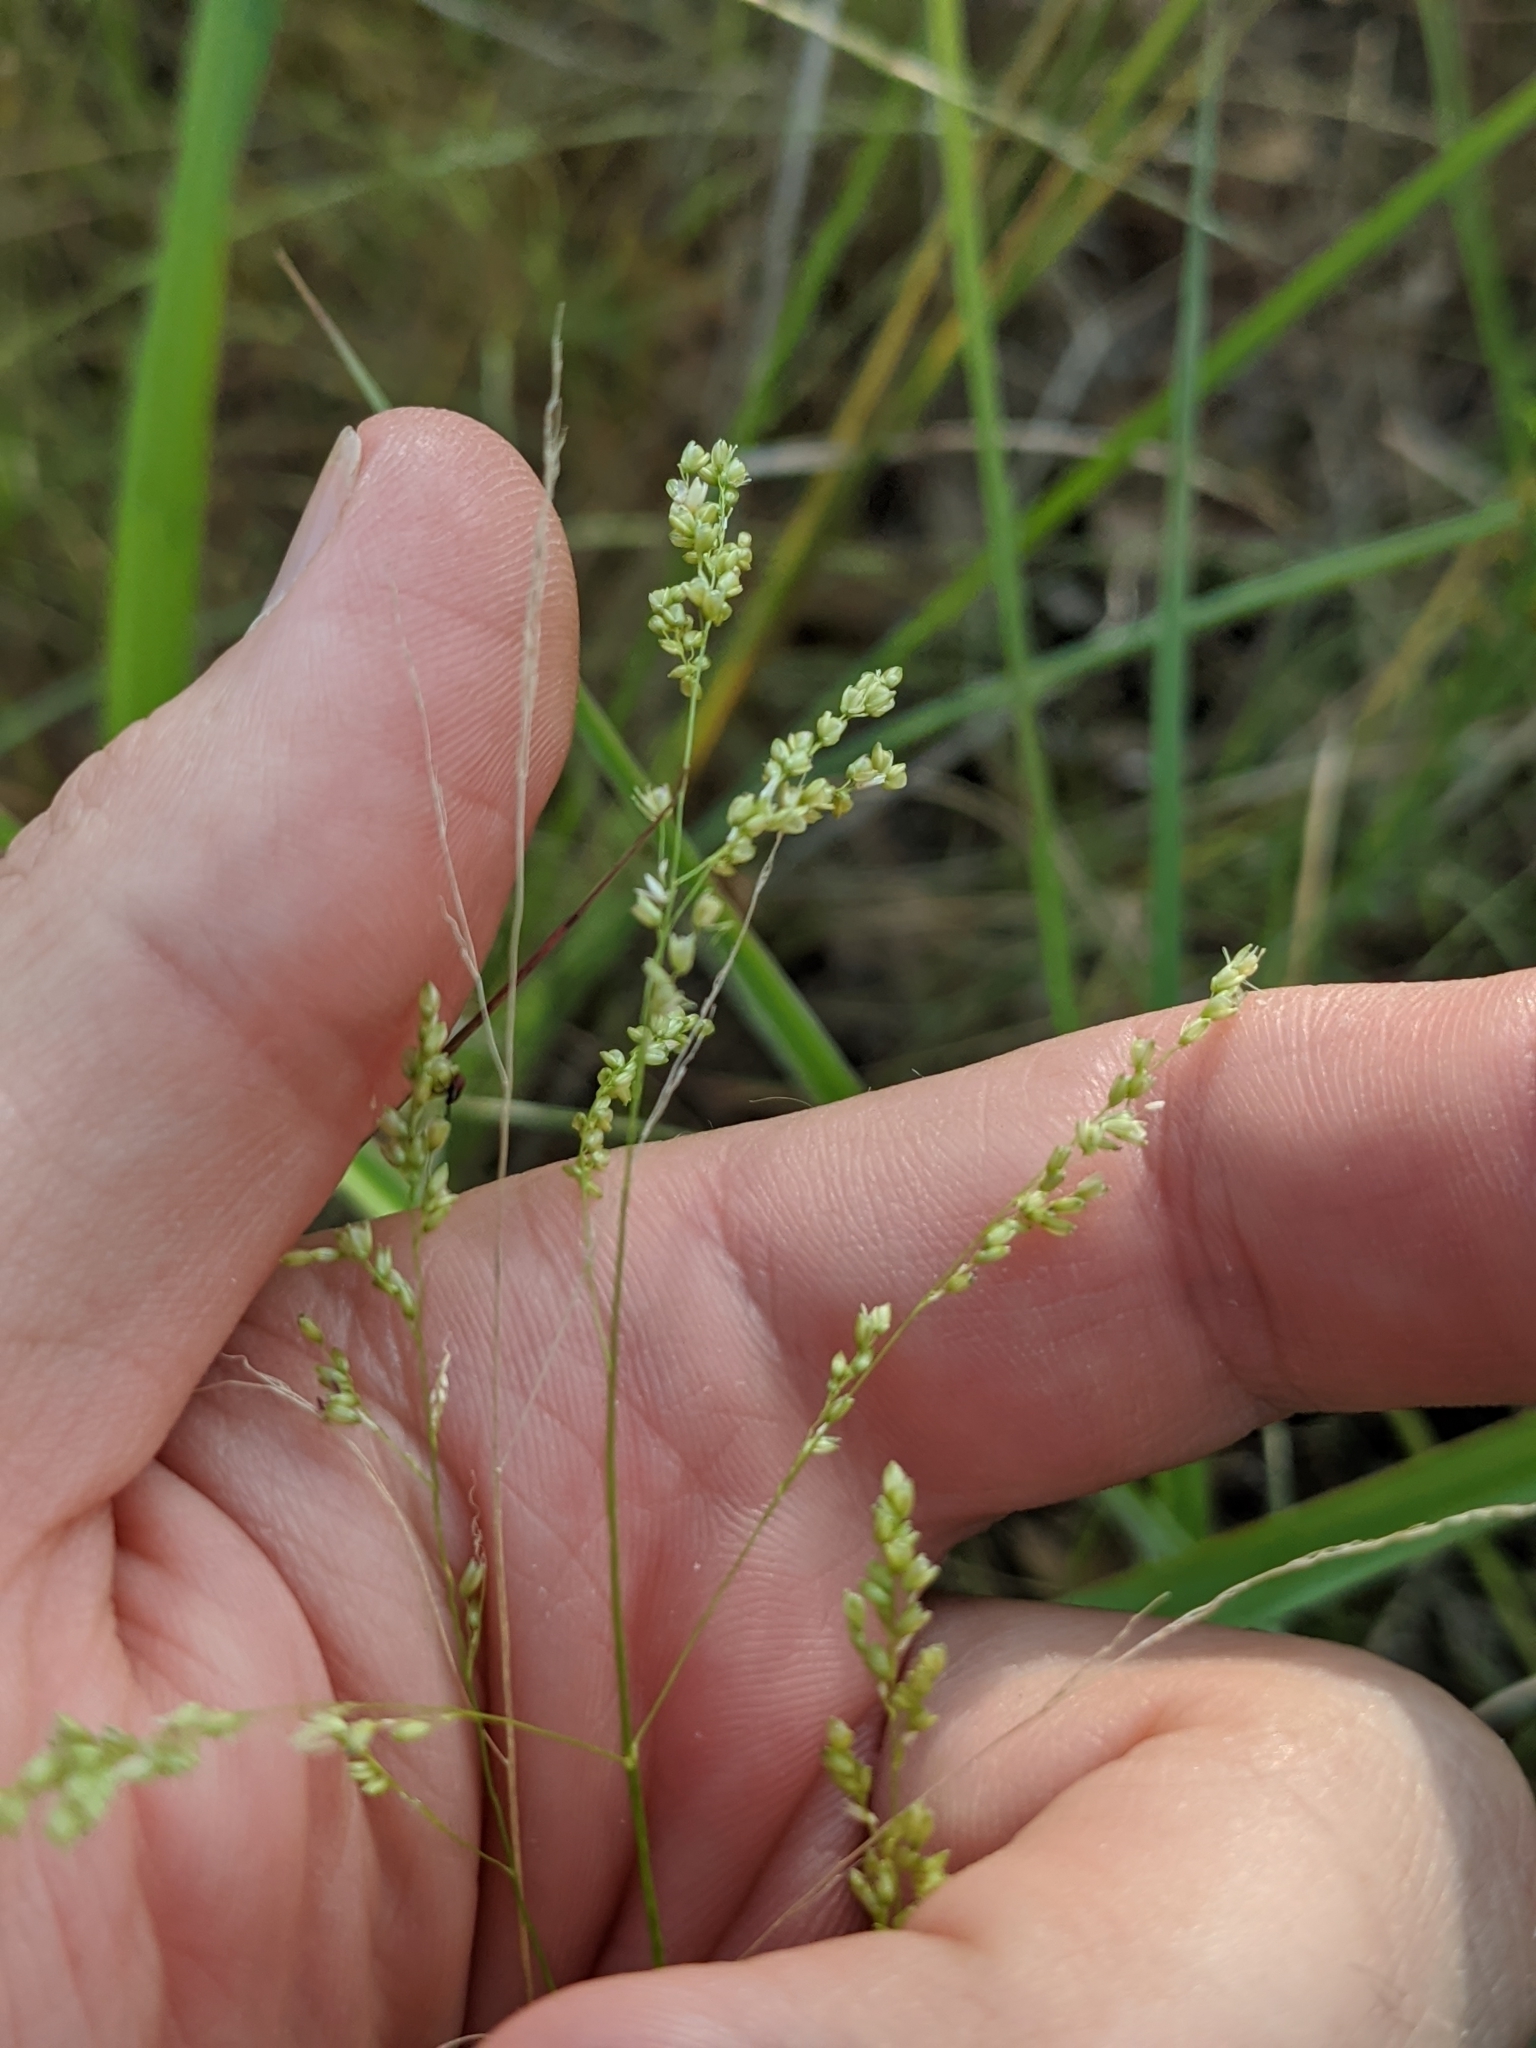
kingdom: Plantae
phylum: Tracheophyta
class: Liliopsida
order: Poales
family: Poaceae
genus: Steinchisma
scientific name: Steinchisma hians
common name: Gaping panic grass
